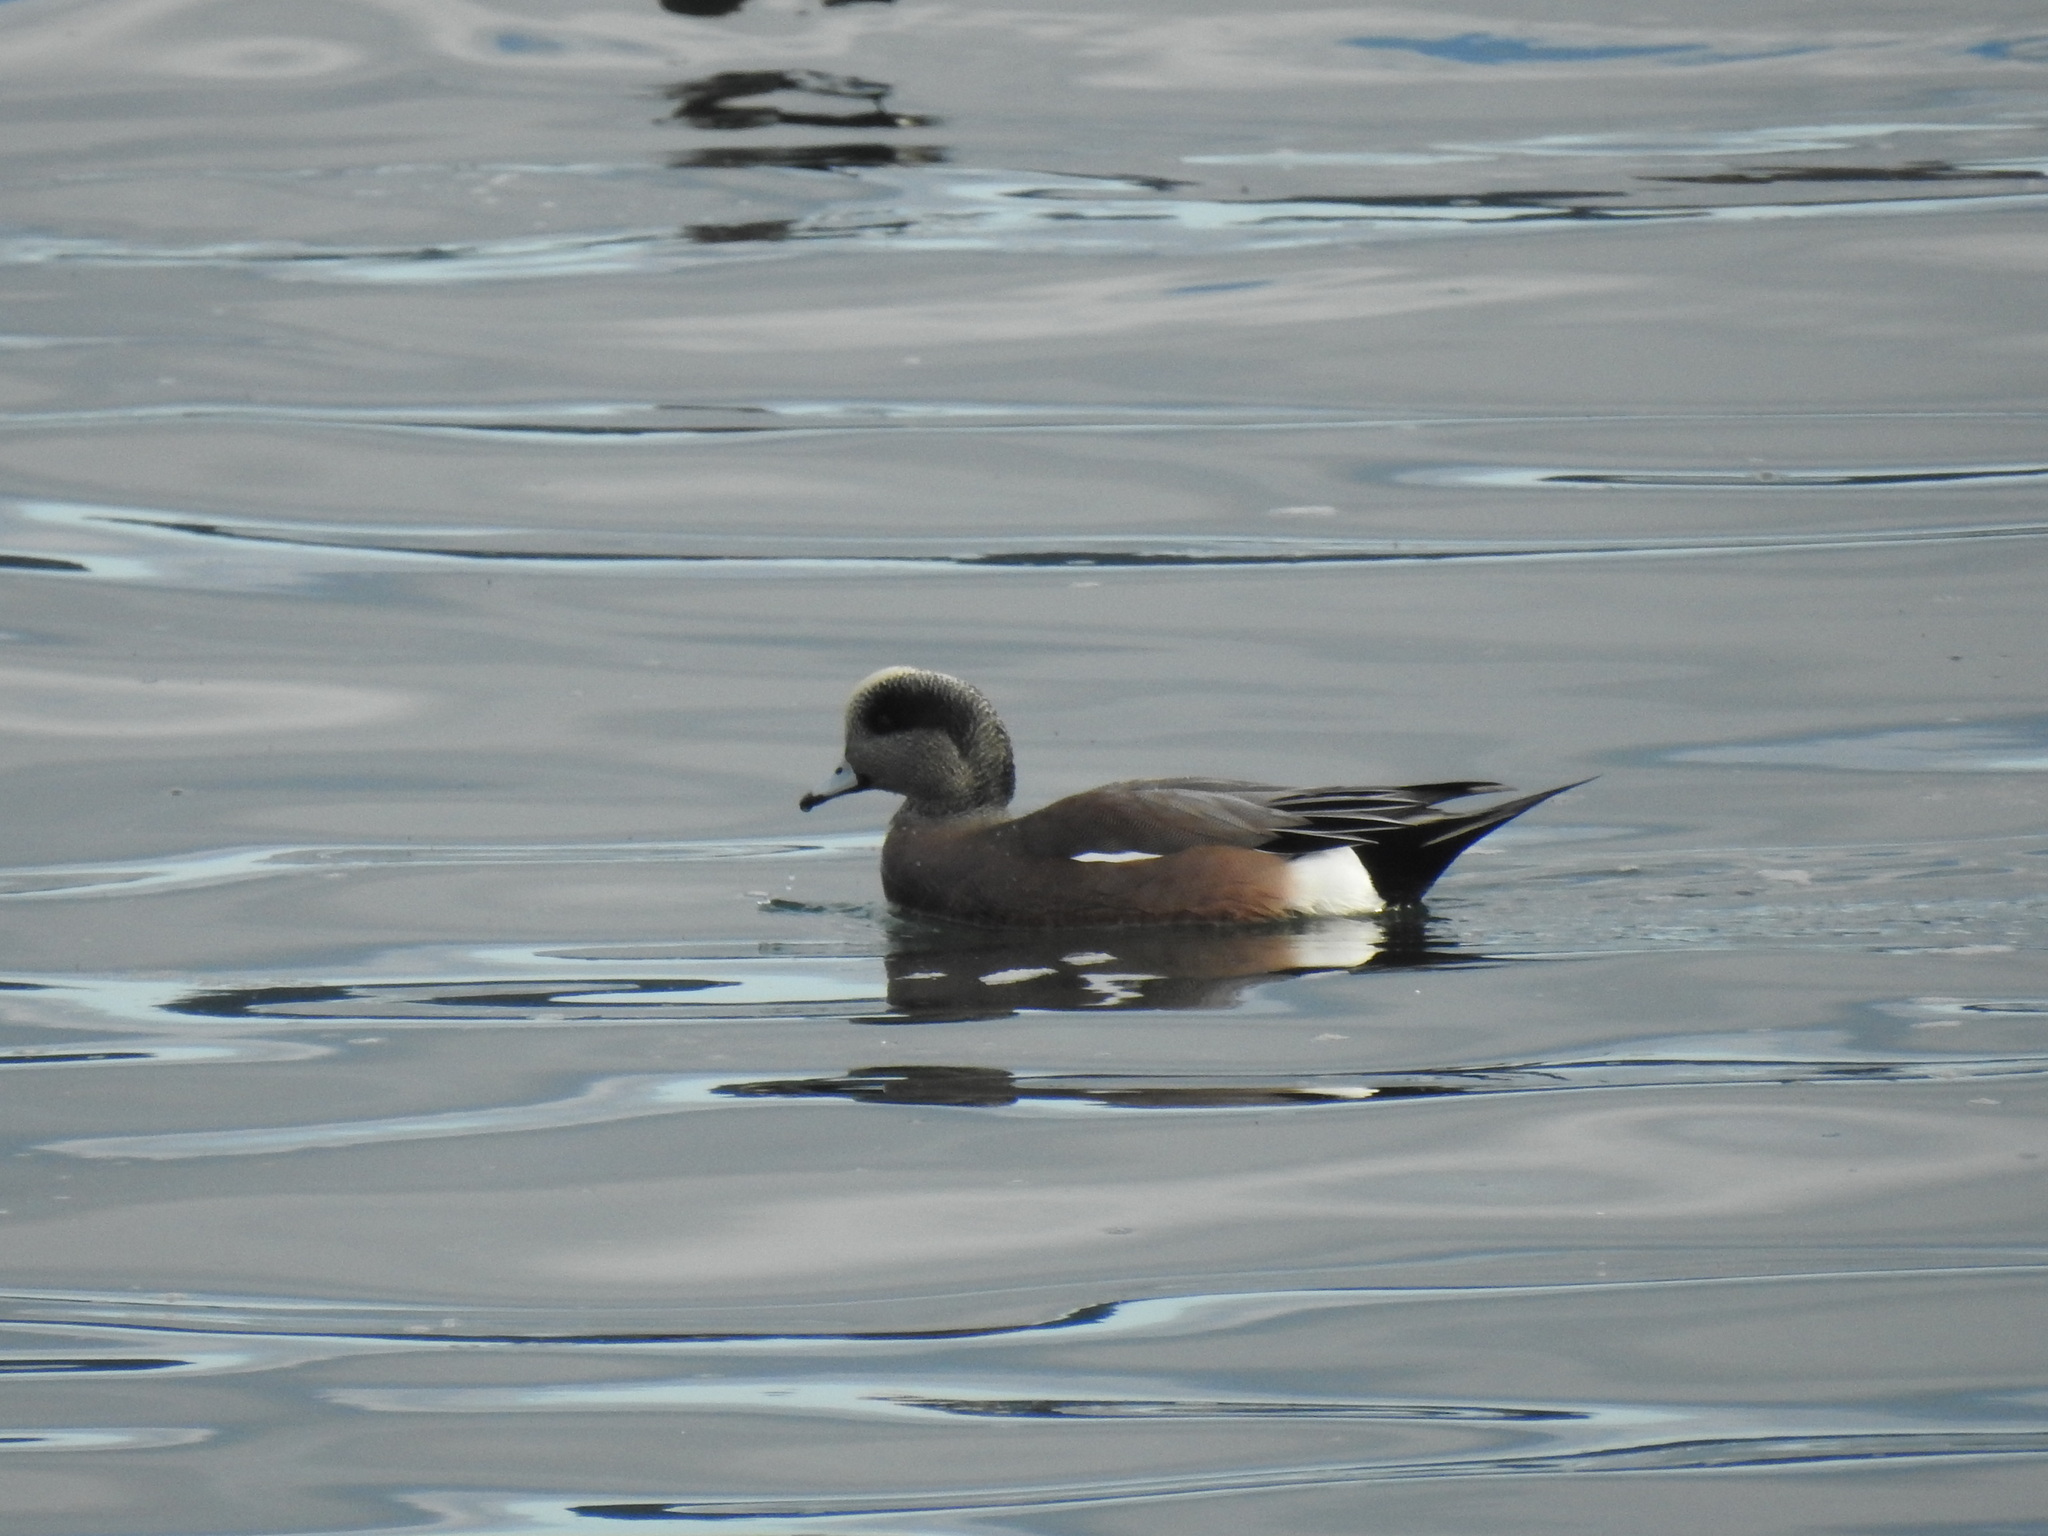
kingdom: Animalia
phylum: Chordata
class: Aves
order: Anseriformes
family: Anatidae
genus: Mareca
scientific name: Mareca americana
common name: American wigeon
